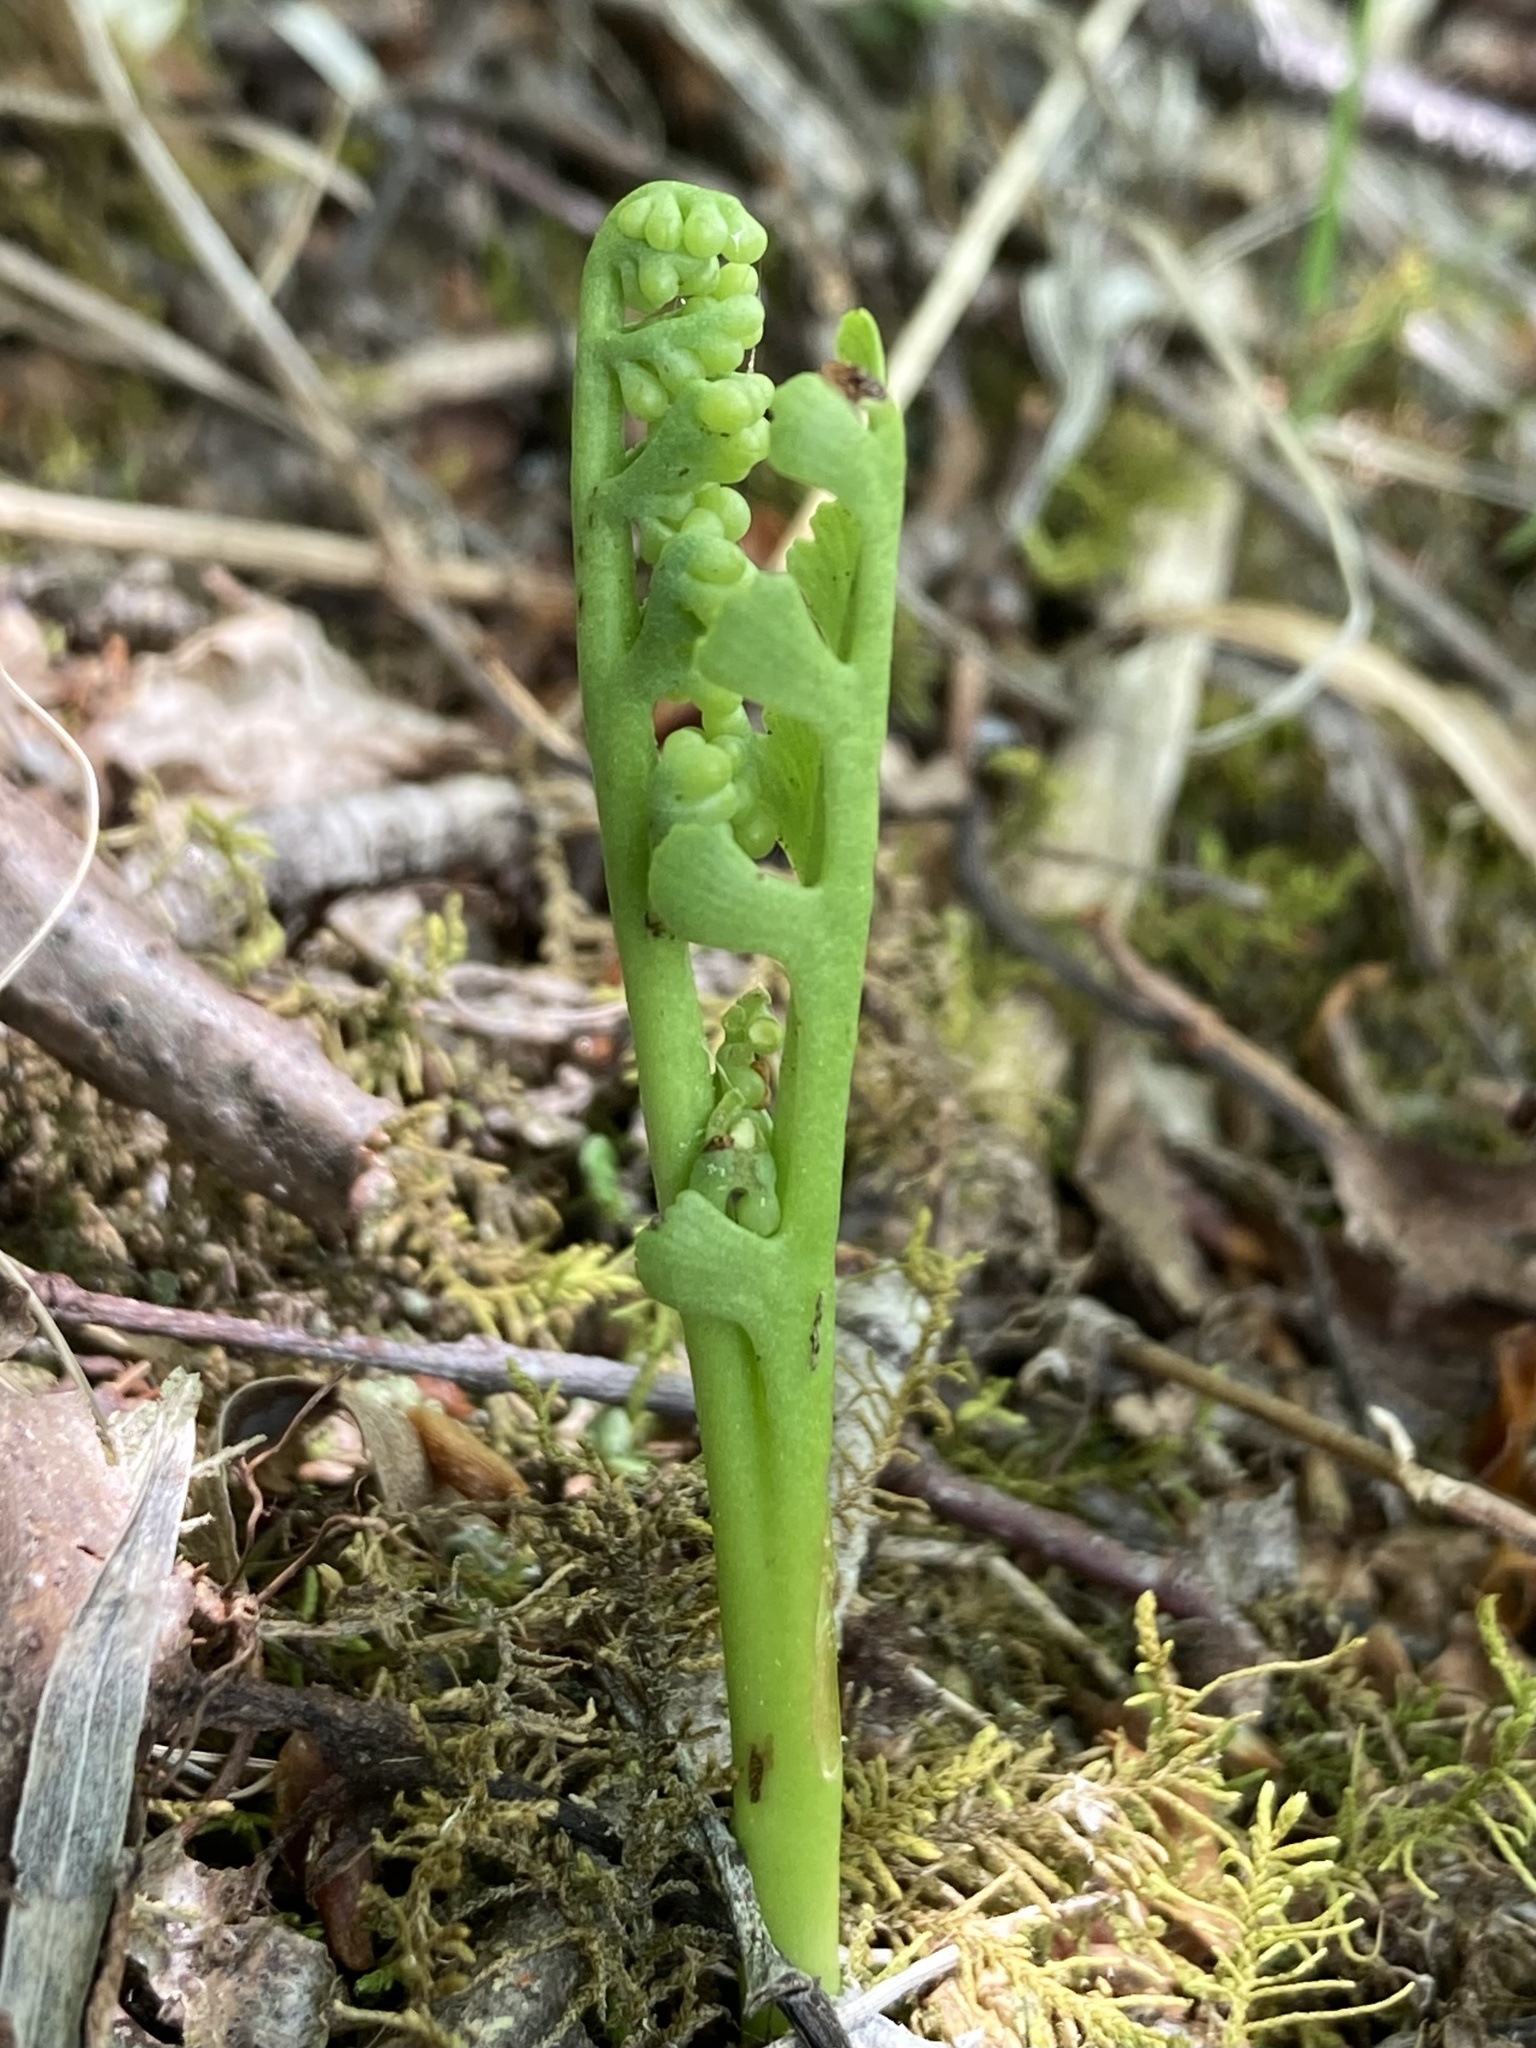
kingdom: Plantae
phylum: Tracheophyta
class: Polypodiopsida
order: Ophioglossales
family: Ophioglossaceae
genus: Botrychium
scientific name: Botrychium ascendens
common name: Ascending grapefern
